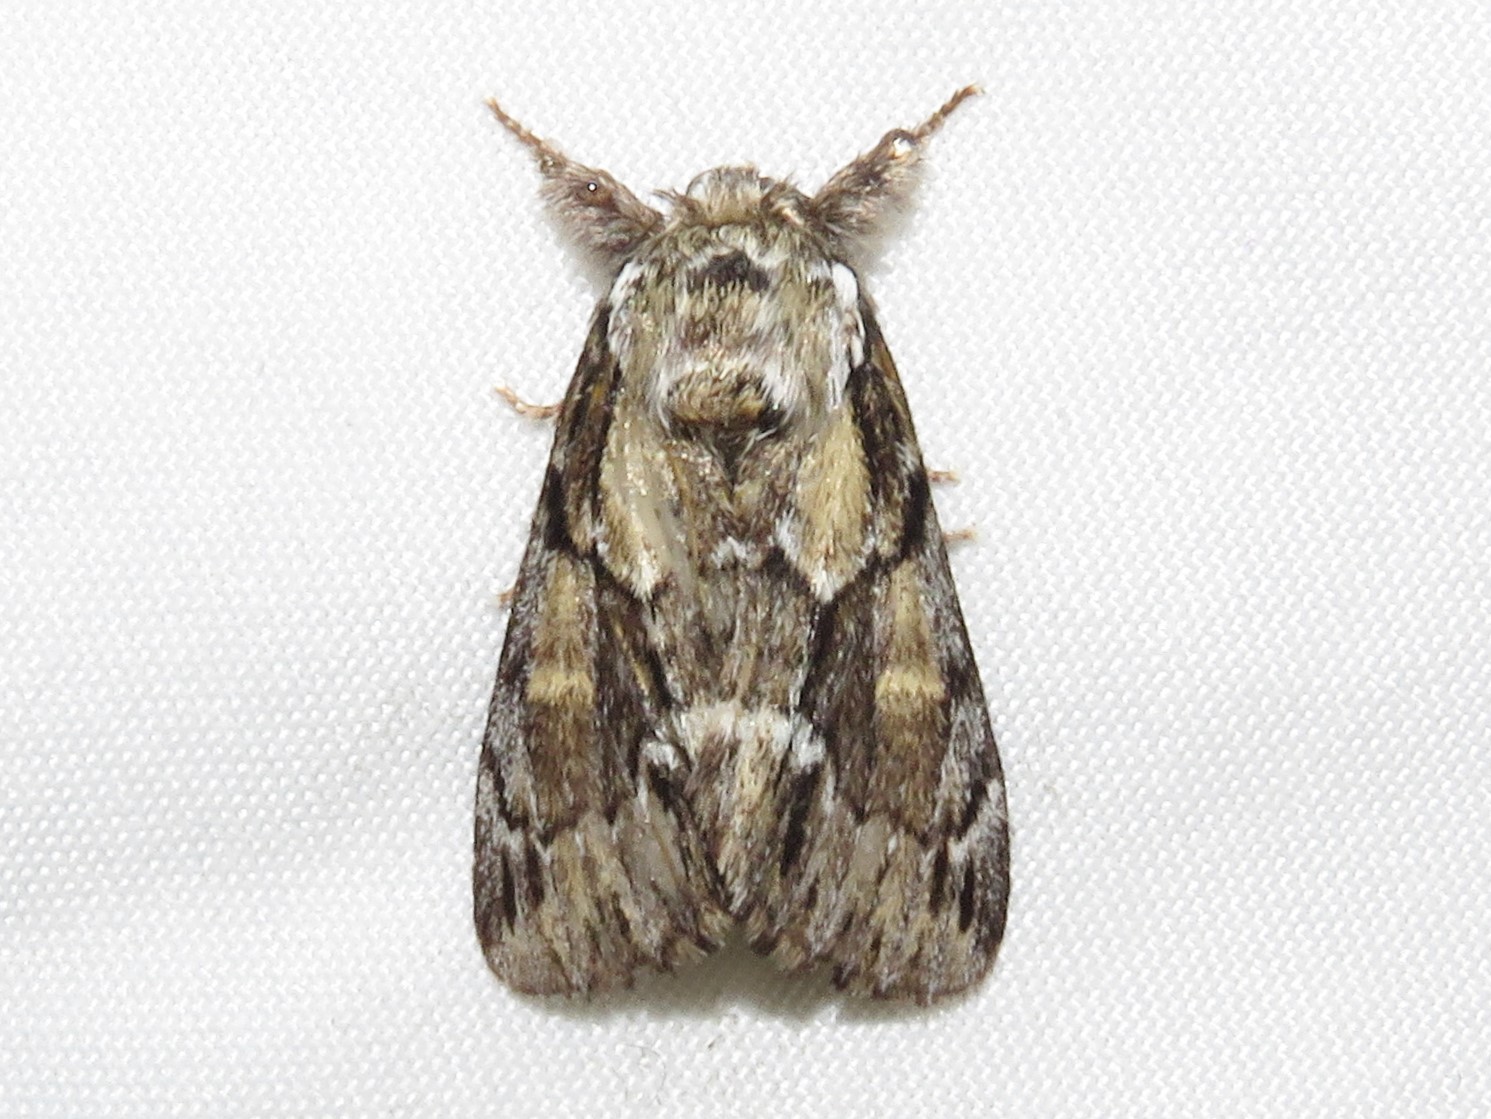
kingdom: Animalia
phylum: Arthropoda
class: Insecta
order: Lepidoptera
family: Notodontidae
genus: Paraeschra
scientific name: Paraeschra georgica
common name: Georgian prominent
